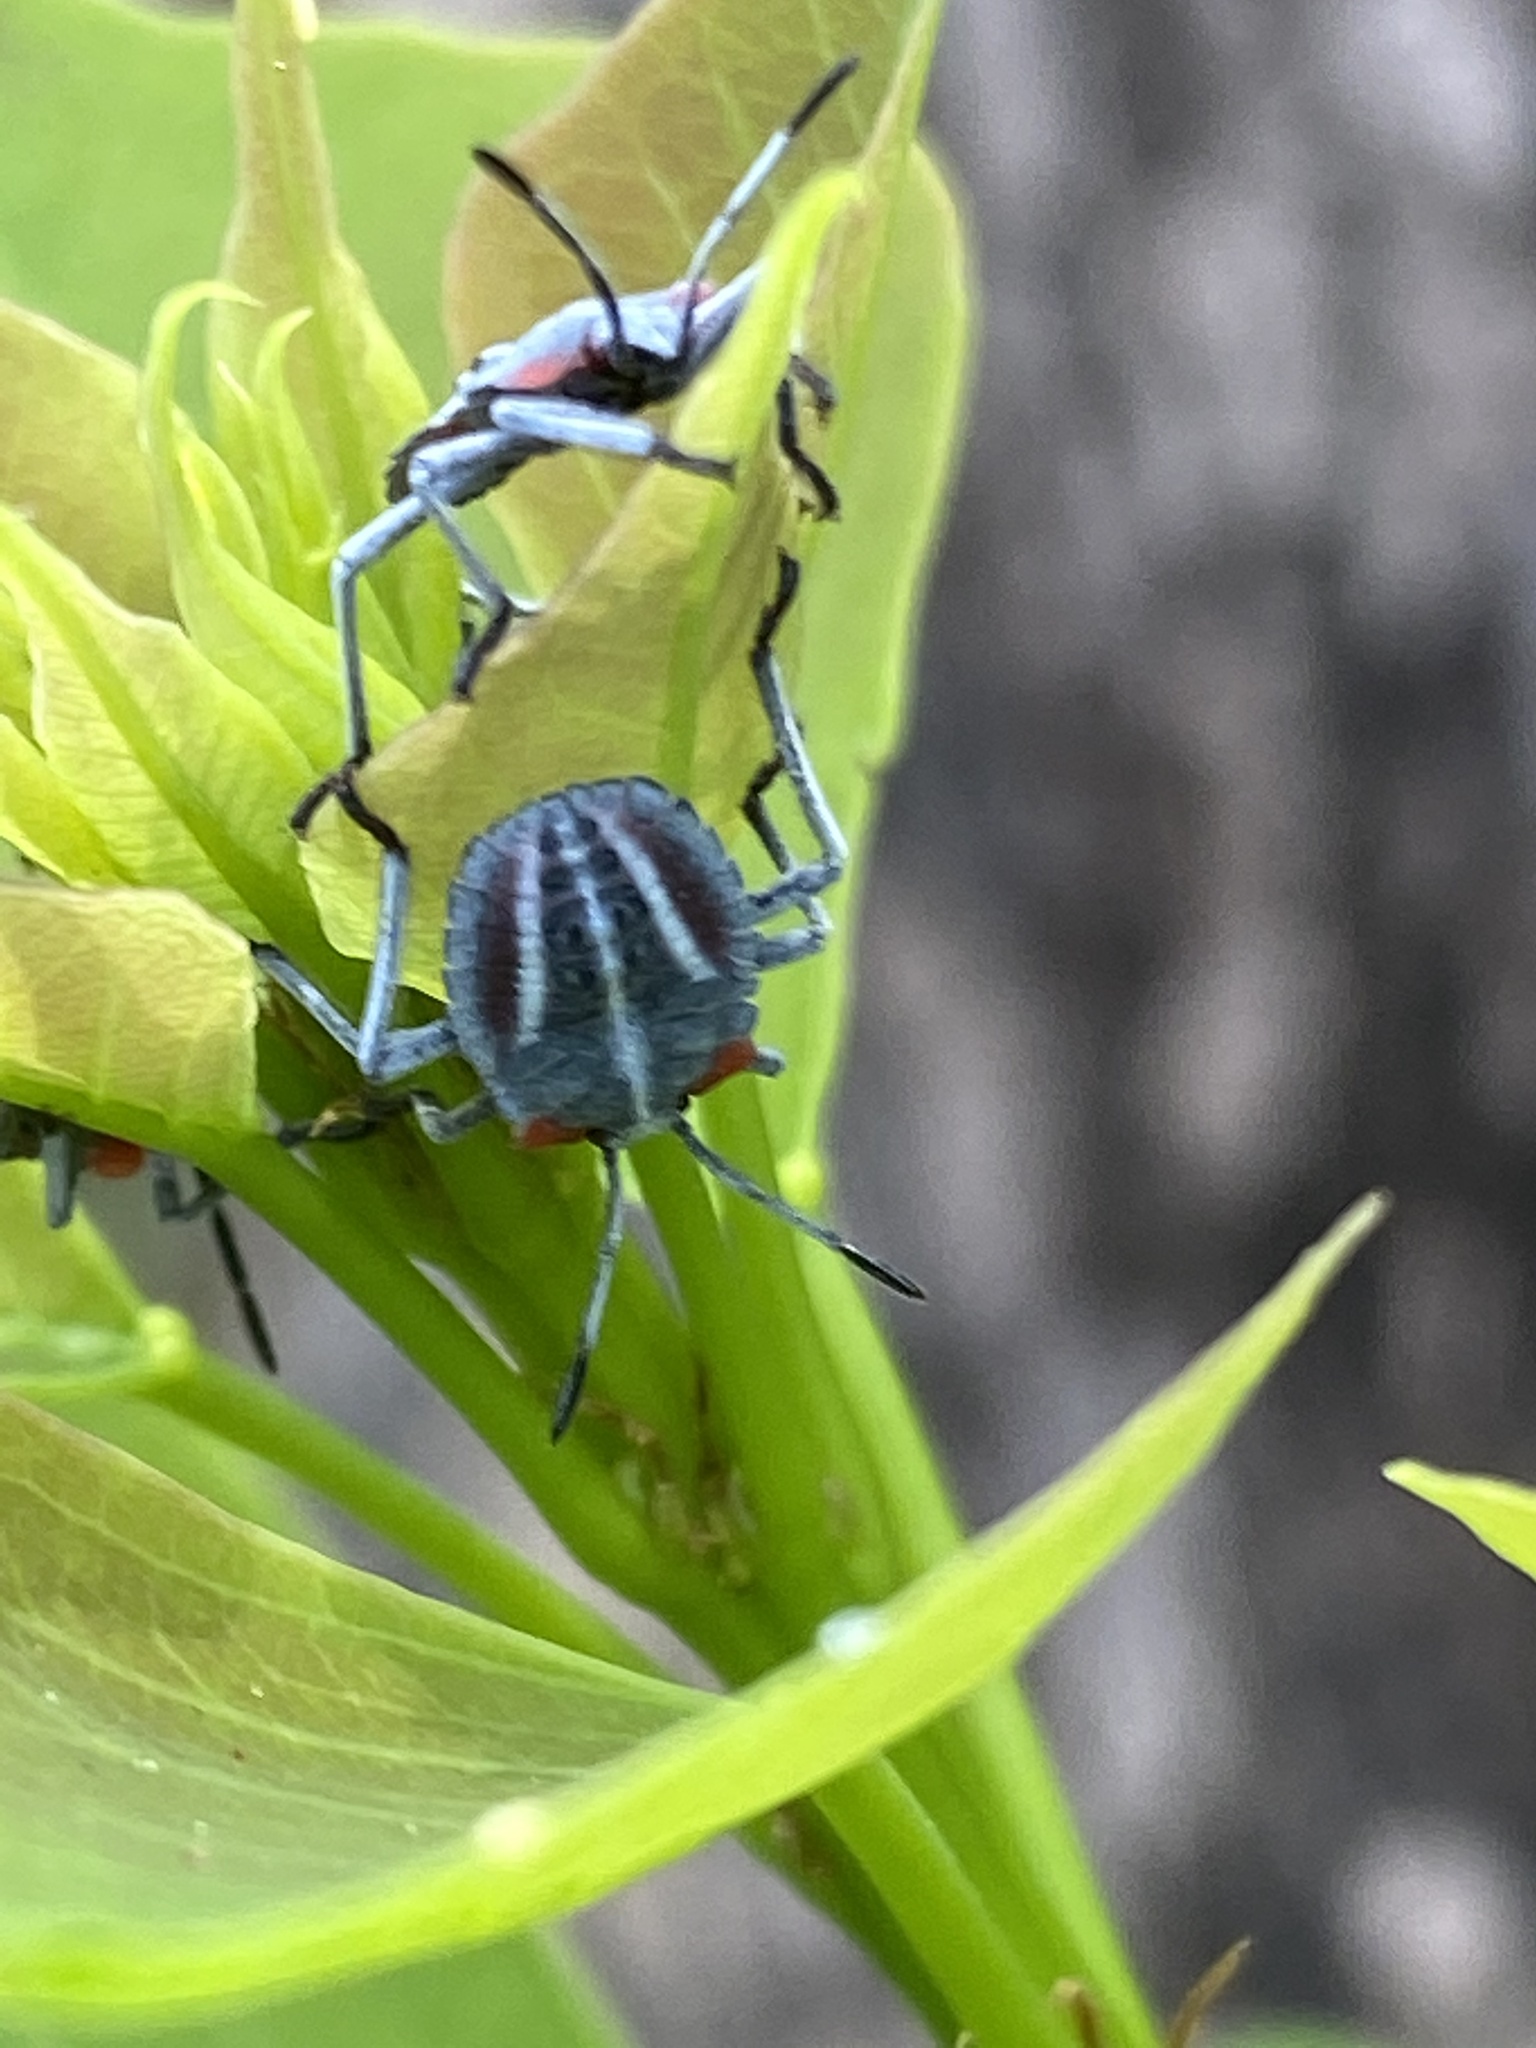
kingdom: Animalia
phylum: Arthropoda
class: Insecta
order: Hemiptera
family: Tessaratomidae
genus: Tessaratoma
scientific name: Tessaratoma papillosa
